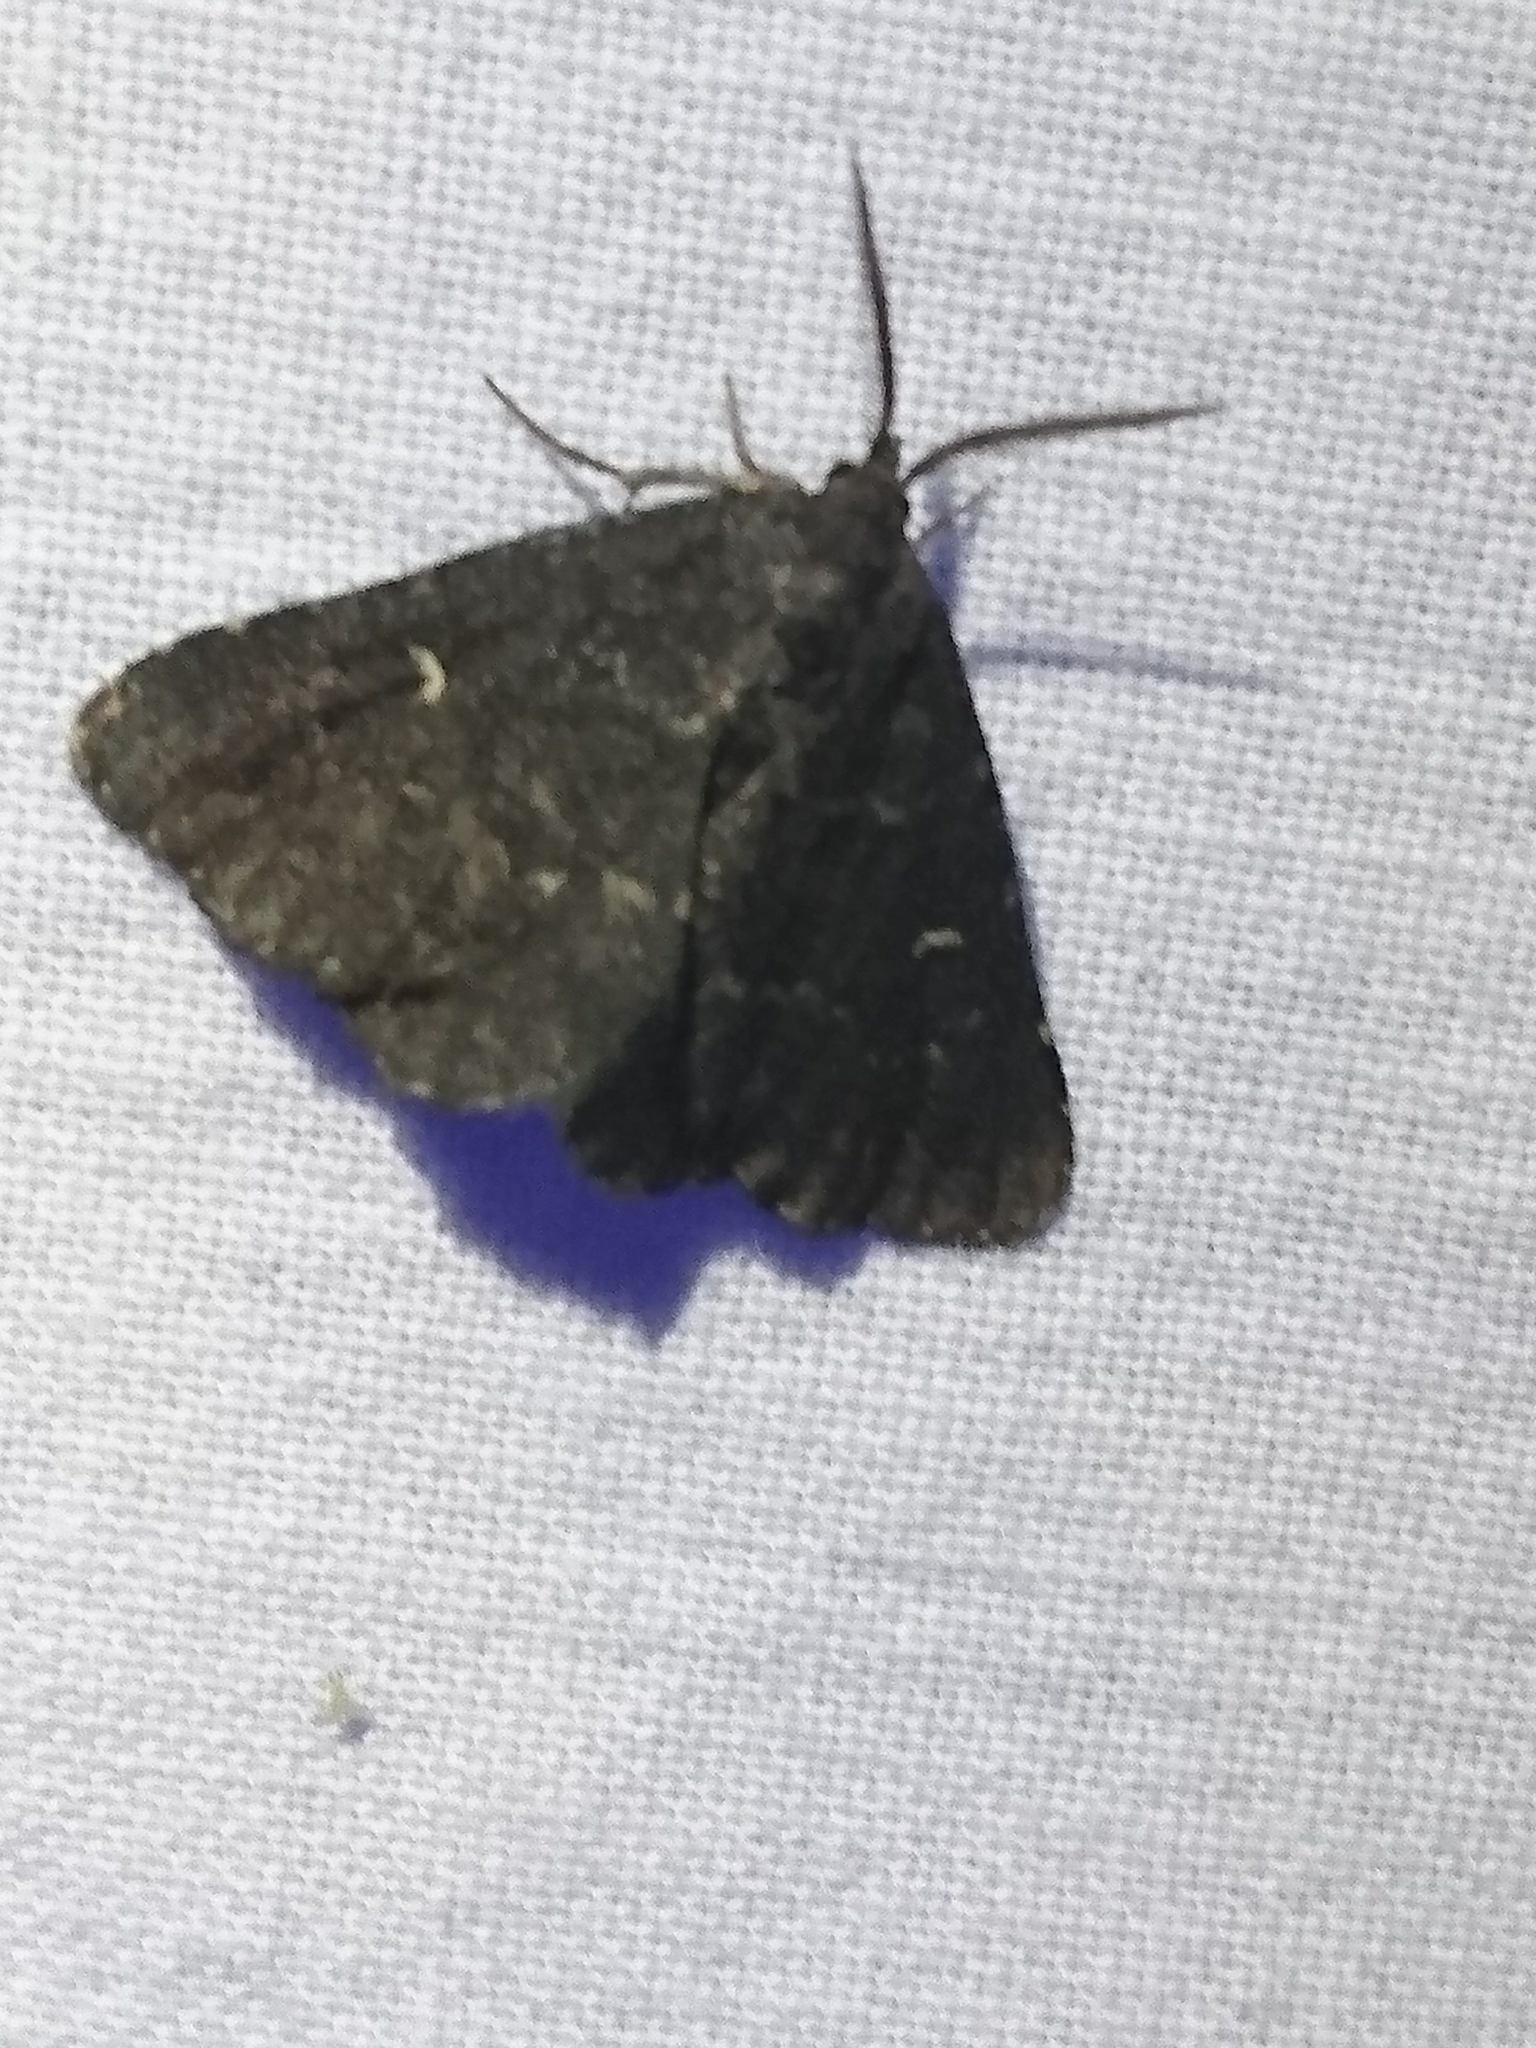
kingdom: Animalia
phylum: Arthropoda
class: Insecta
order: Lepidoptera
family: Erebidae
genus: Hypenula
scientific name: Hypenula cacuminalis
